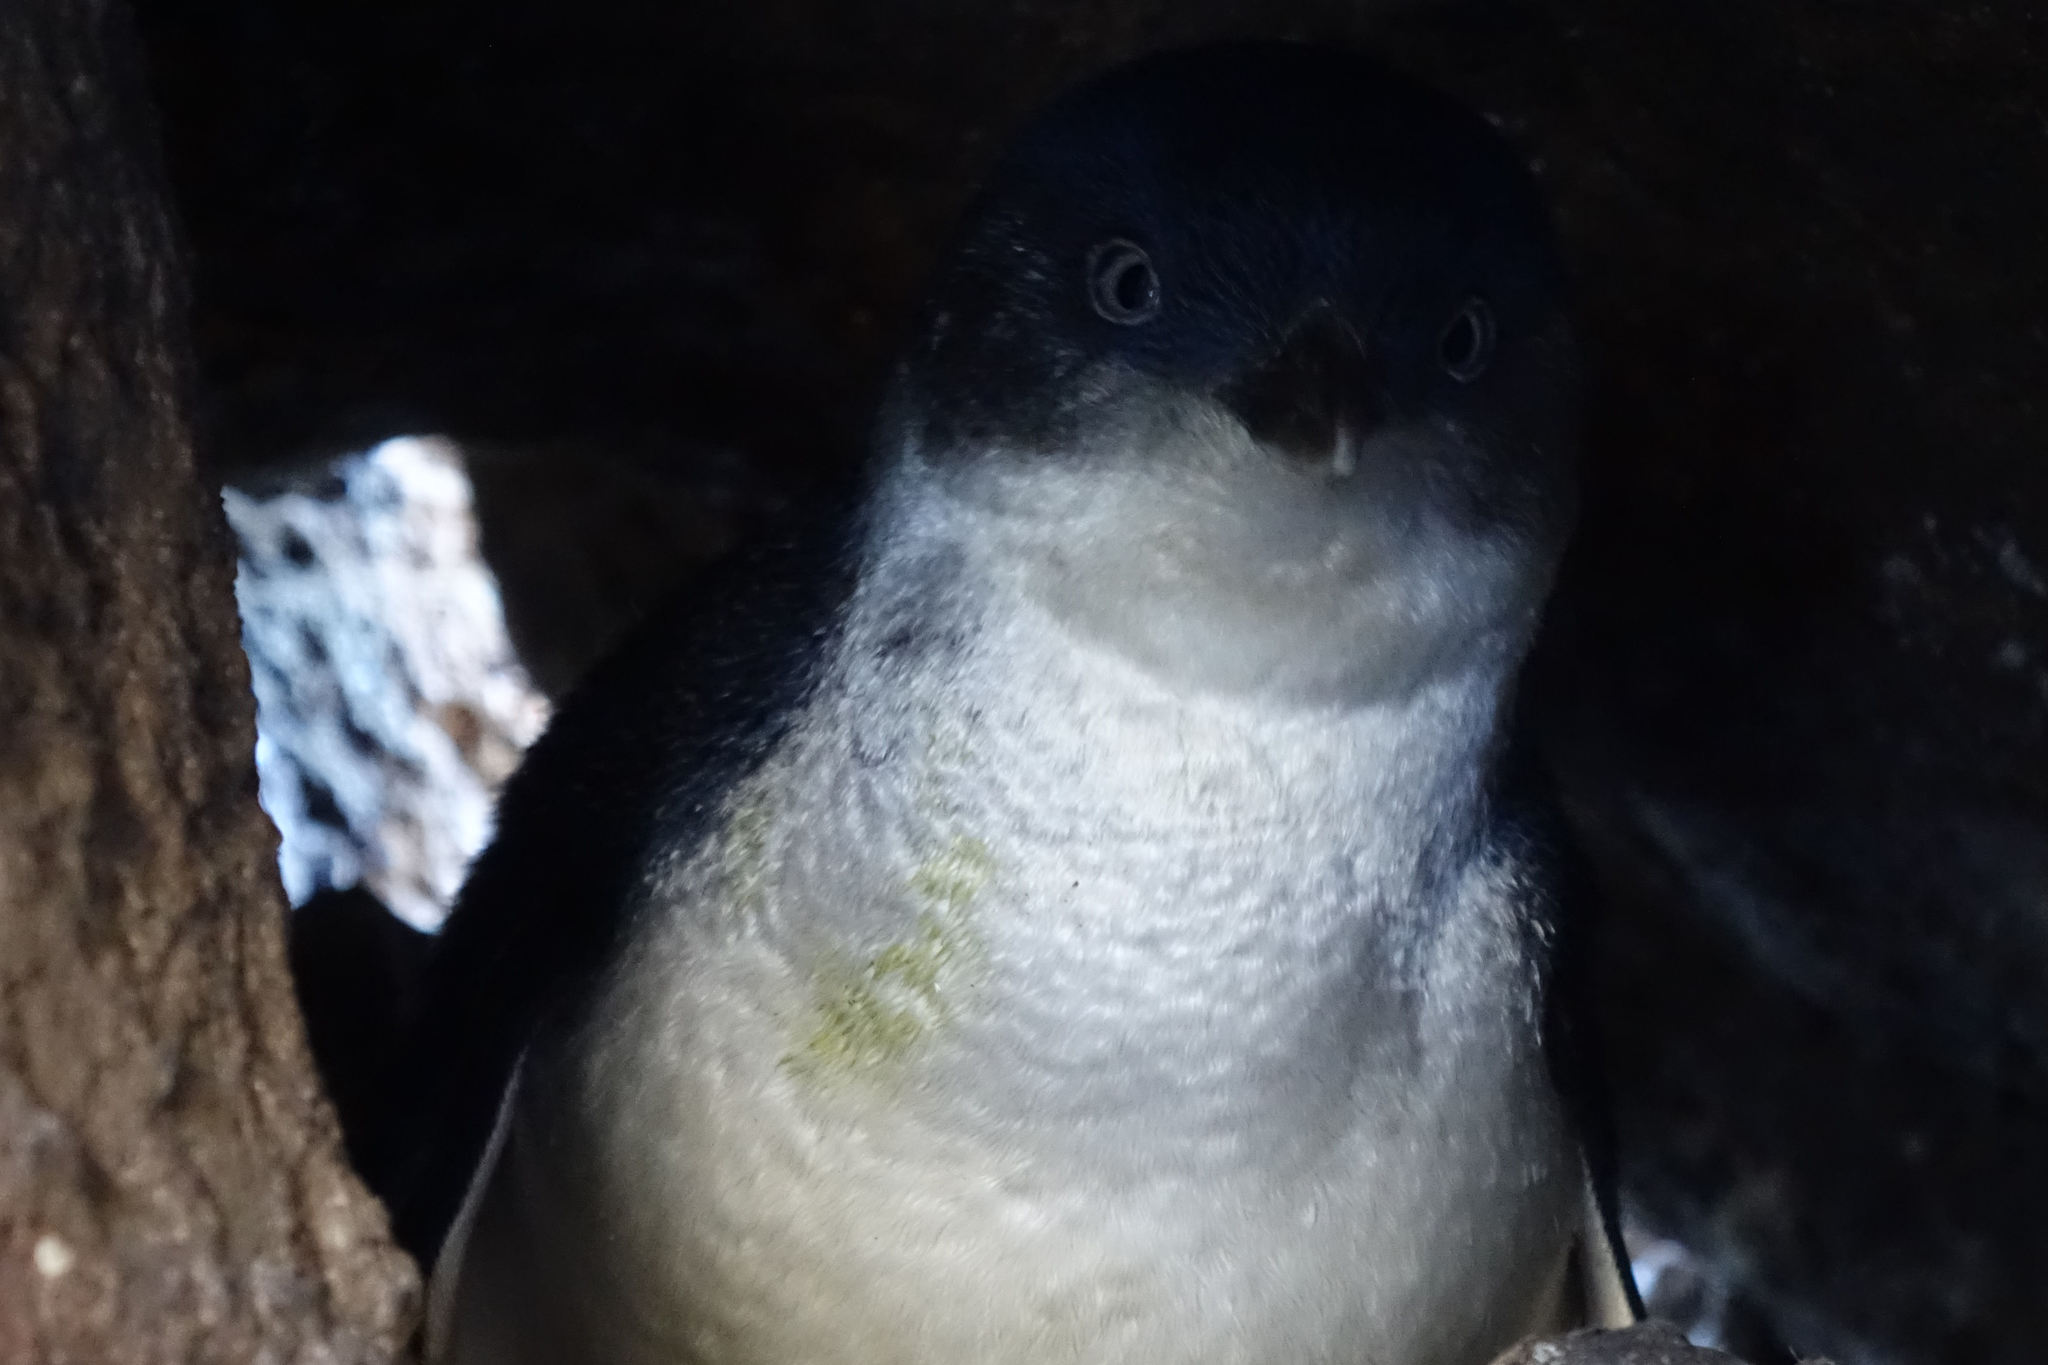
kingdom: Animalia
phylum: Chordata
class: Aves
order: Sphenisciformes
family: Spheniscidae
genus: Eudyptula
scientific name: Eudyptula minor
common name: Little penguin
